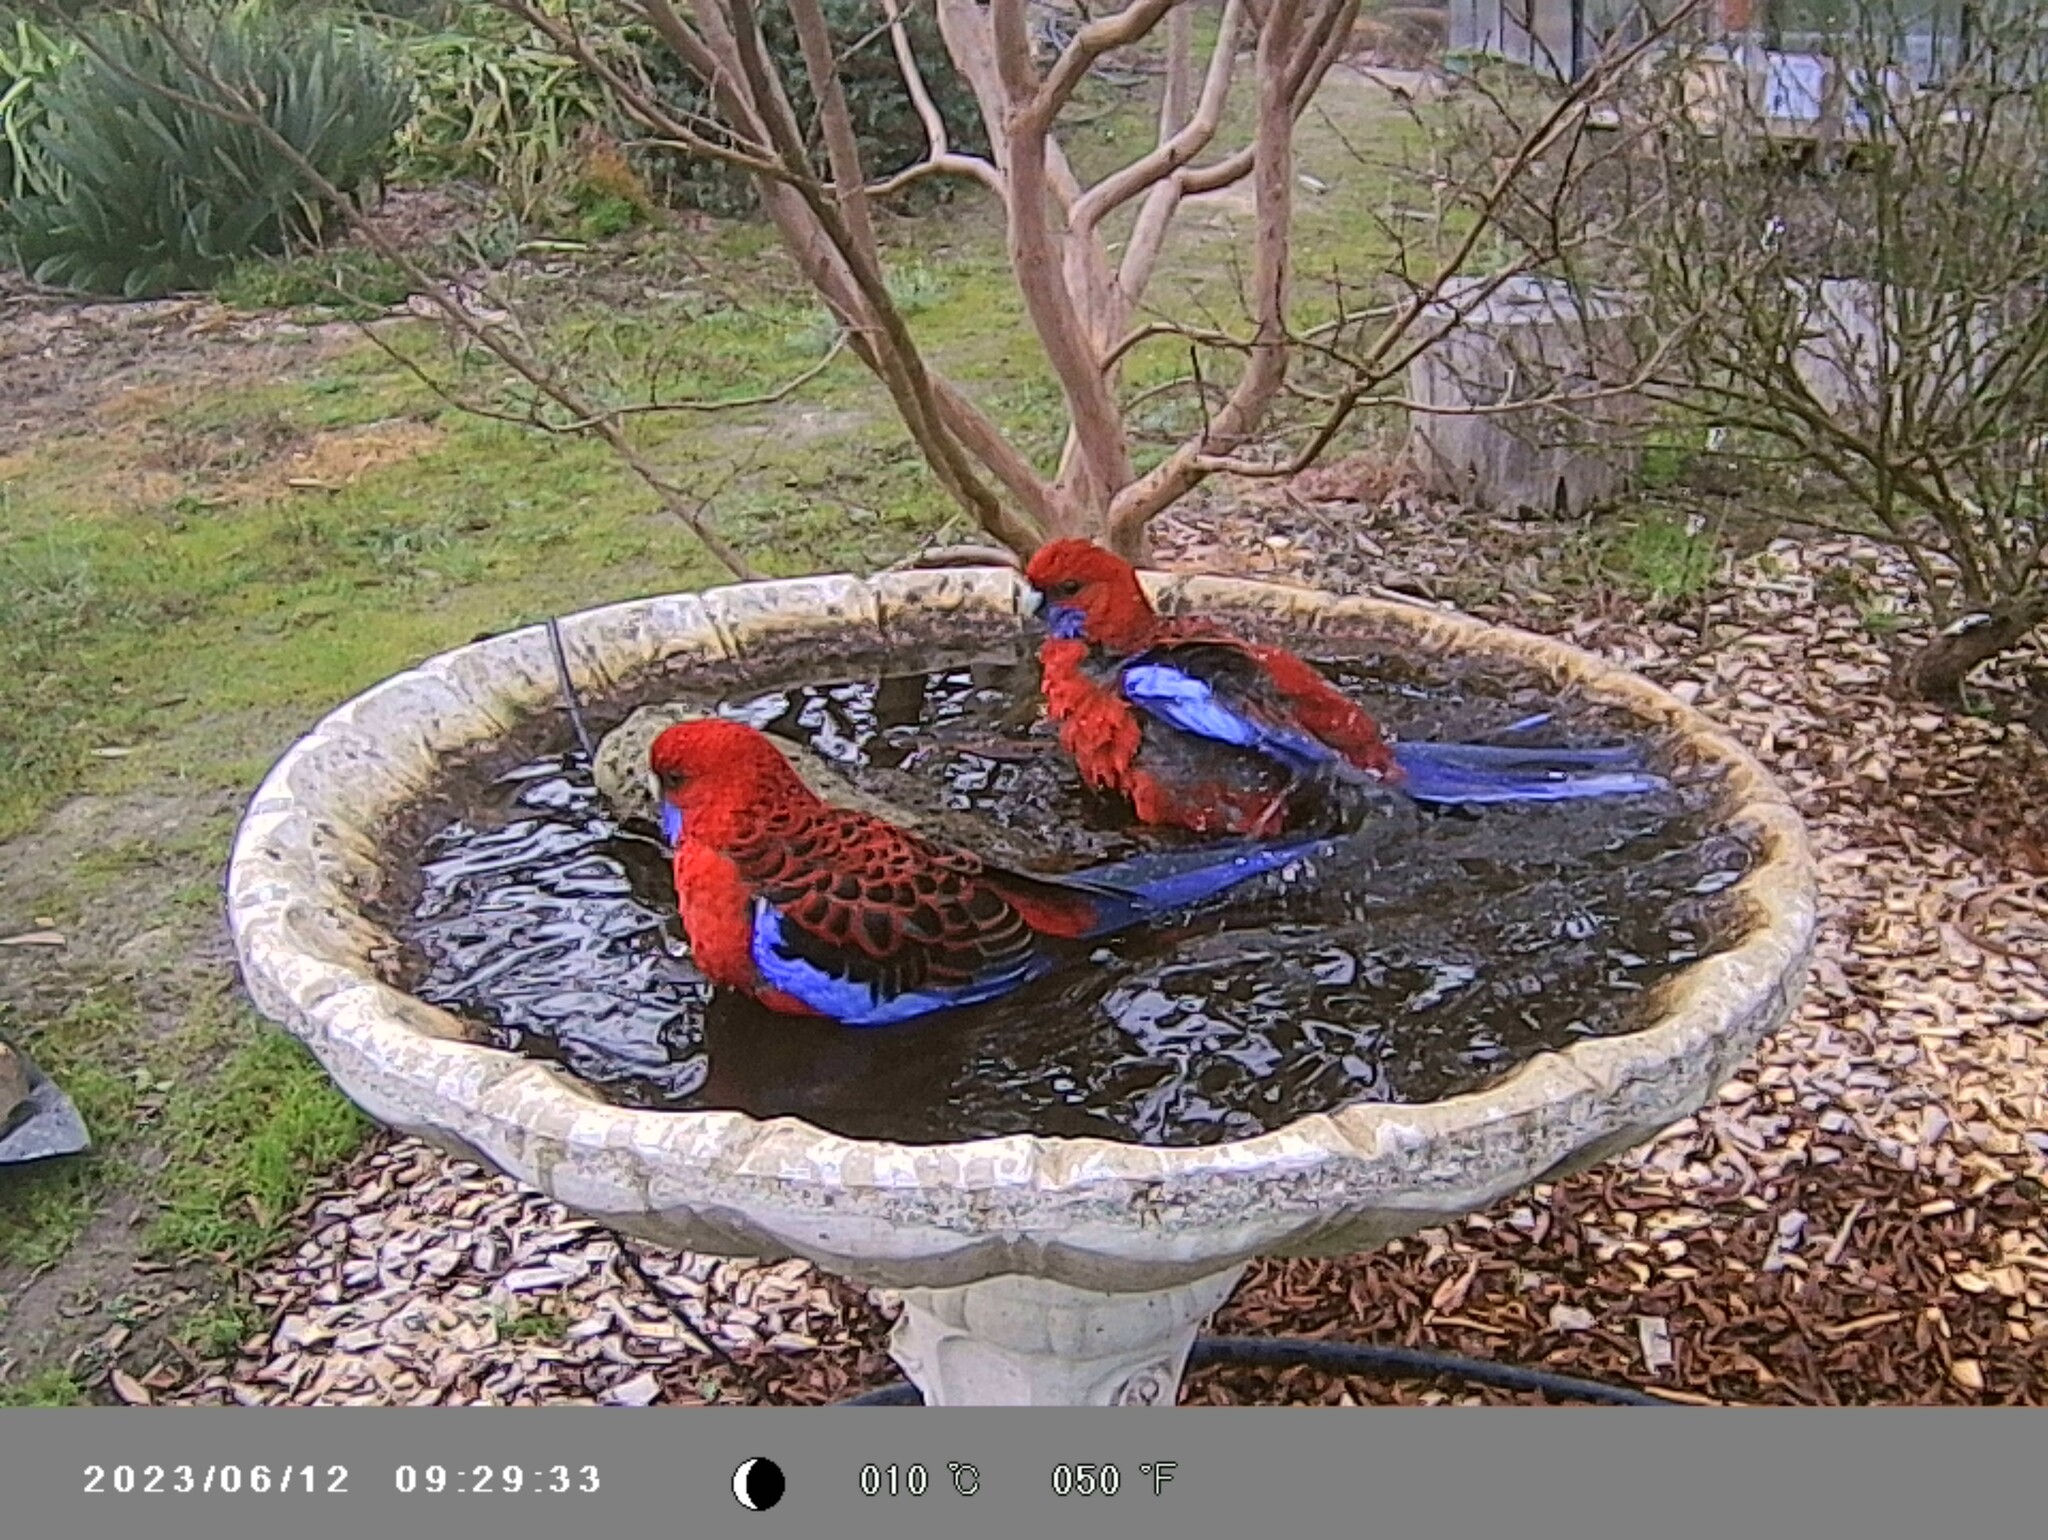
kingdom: Animalia
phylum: Chordata
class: Aves
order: Psittaciformes
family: Psittacidae
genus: Platycercus
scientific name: Platycercus elegans
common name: Crimson rosella
